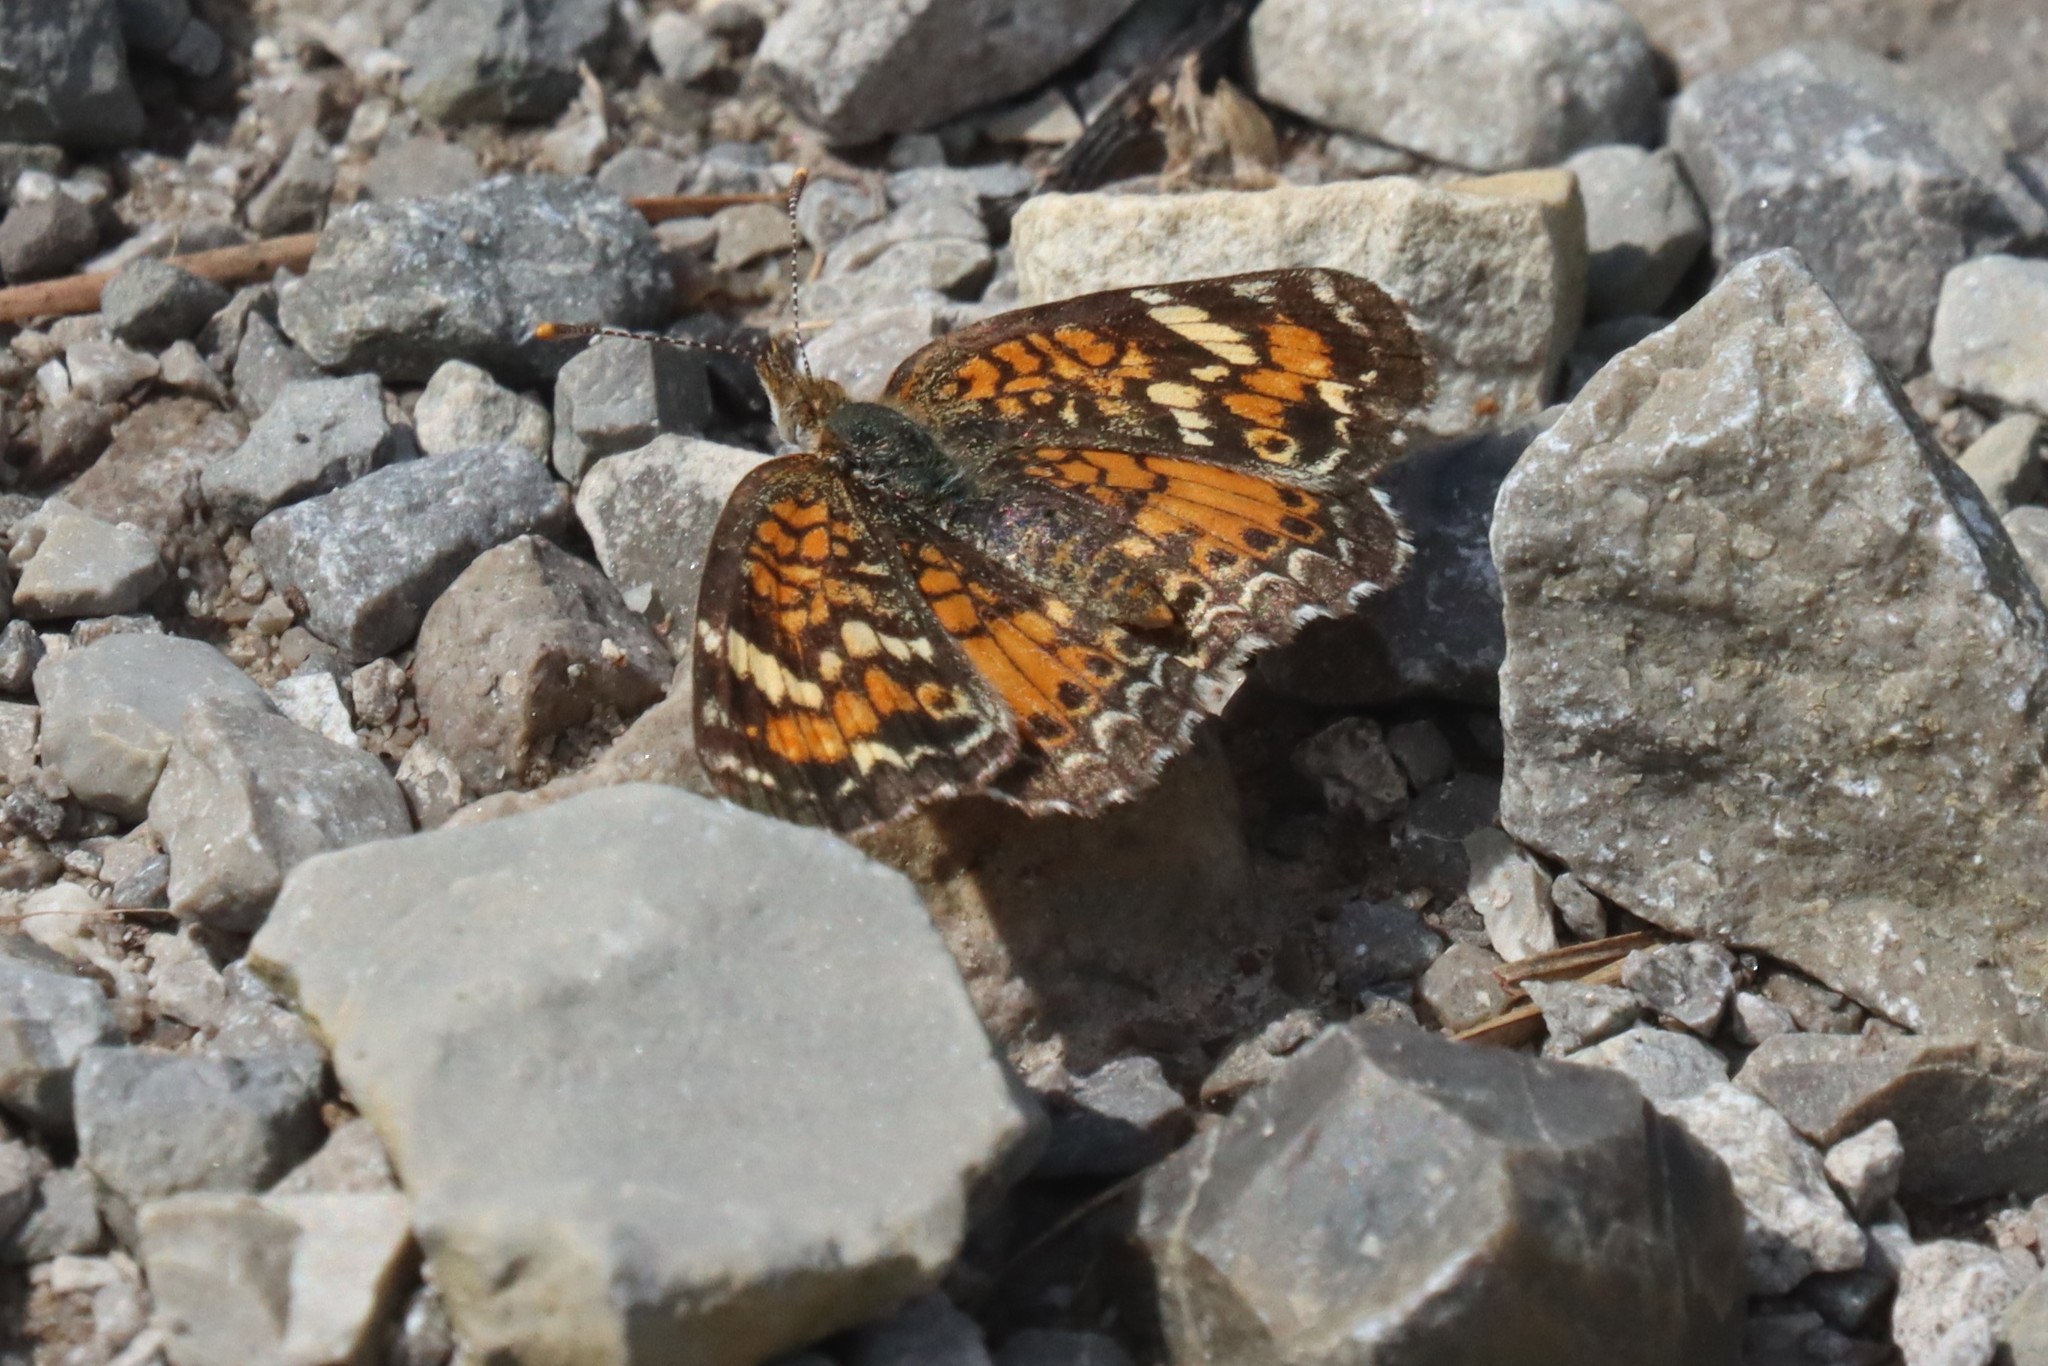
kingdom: Animalia
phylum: Arthropoda
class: Insecta
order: Lepidoptera
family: Nymphalidae
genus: Phyciodes
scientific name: Phyciodes phaon
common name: Phaon crescent
